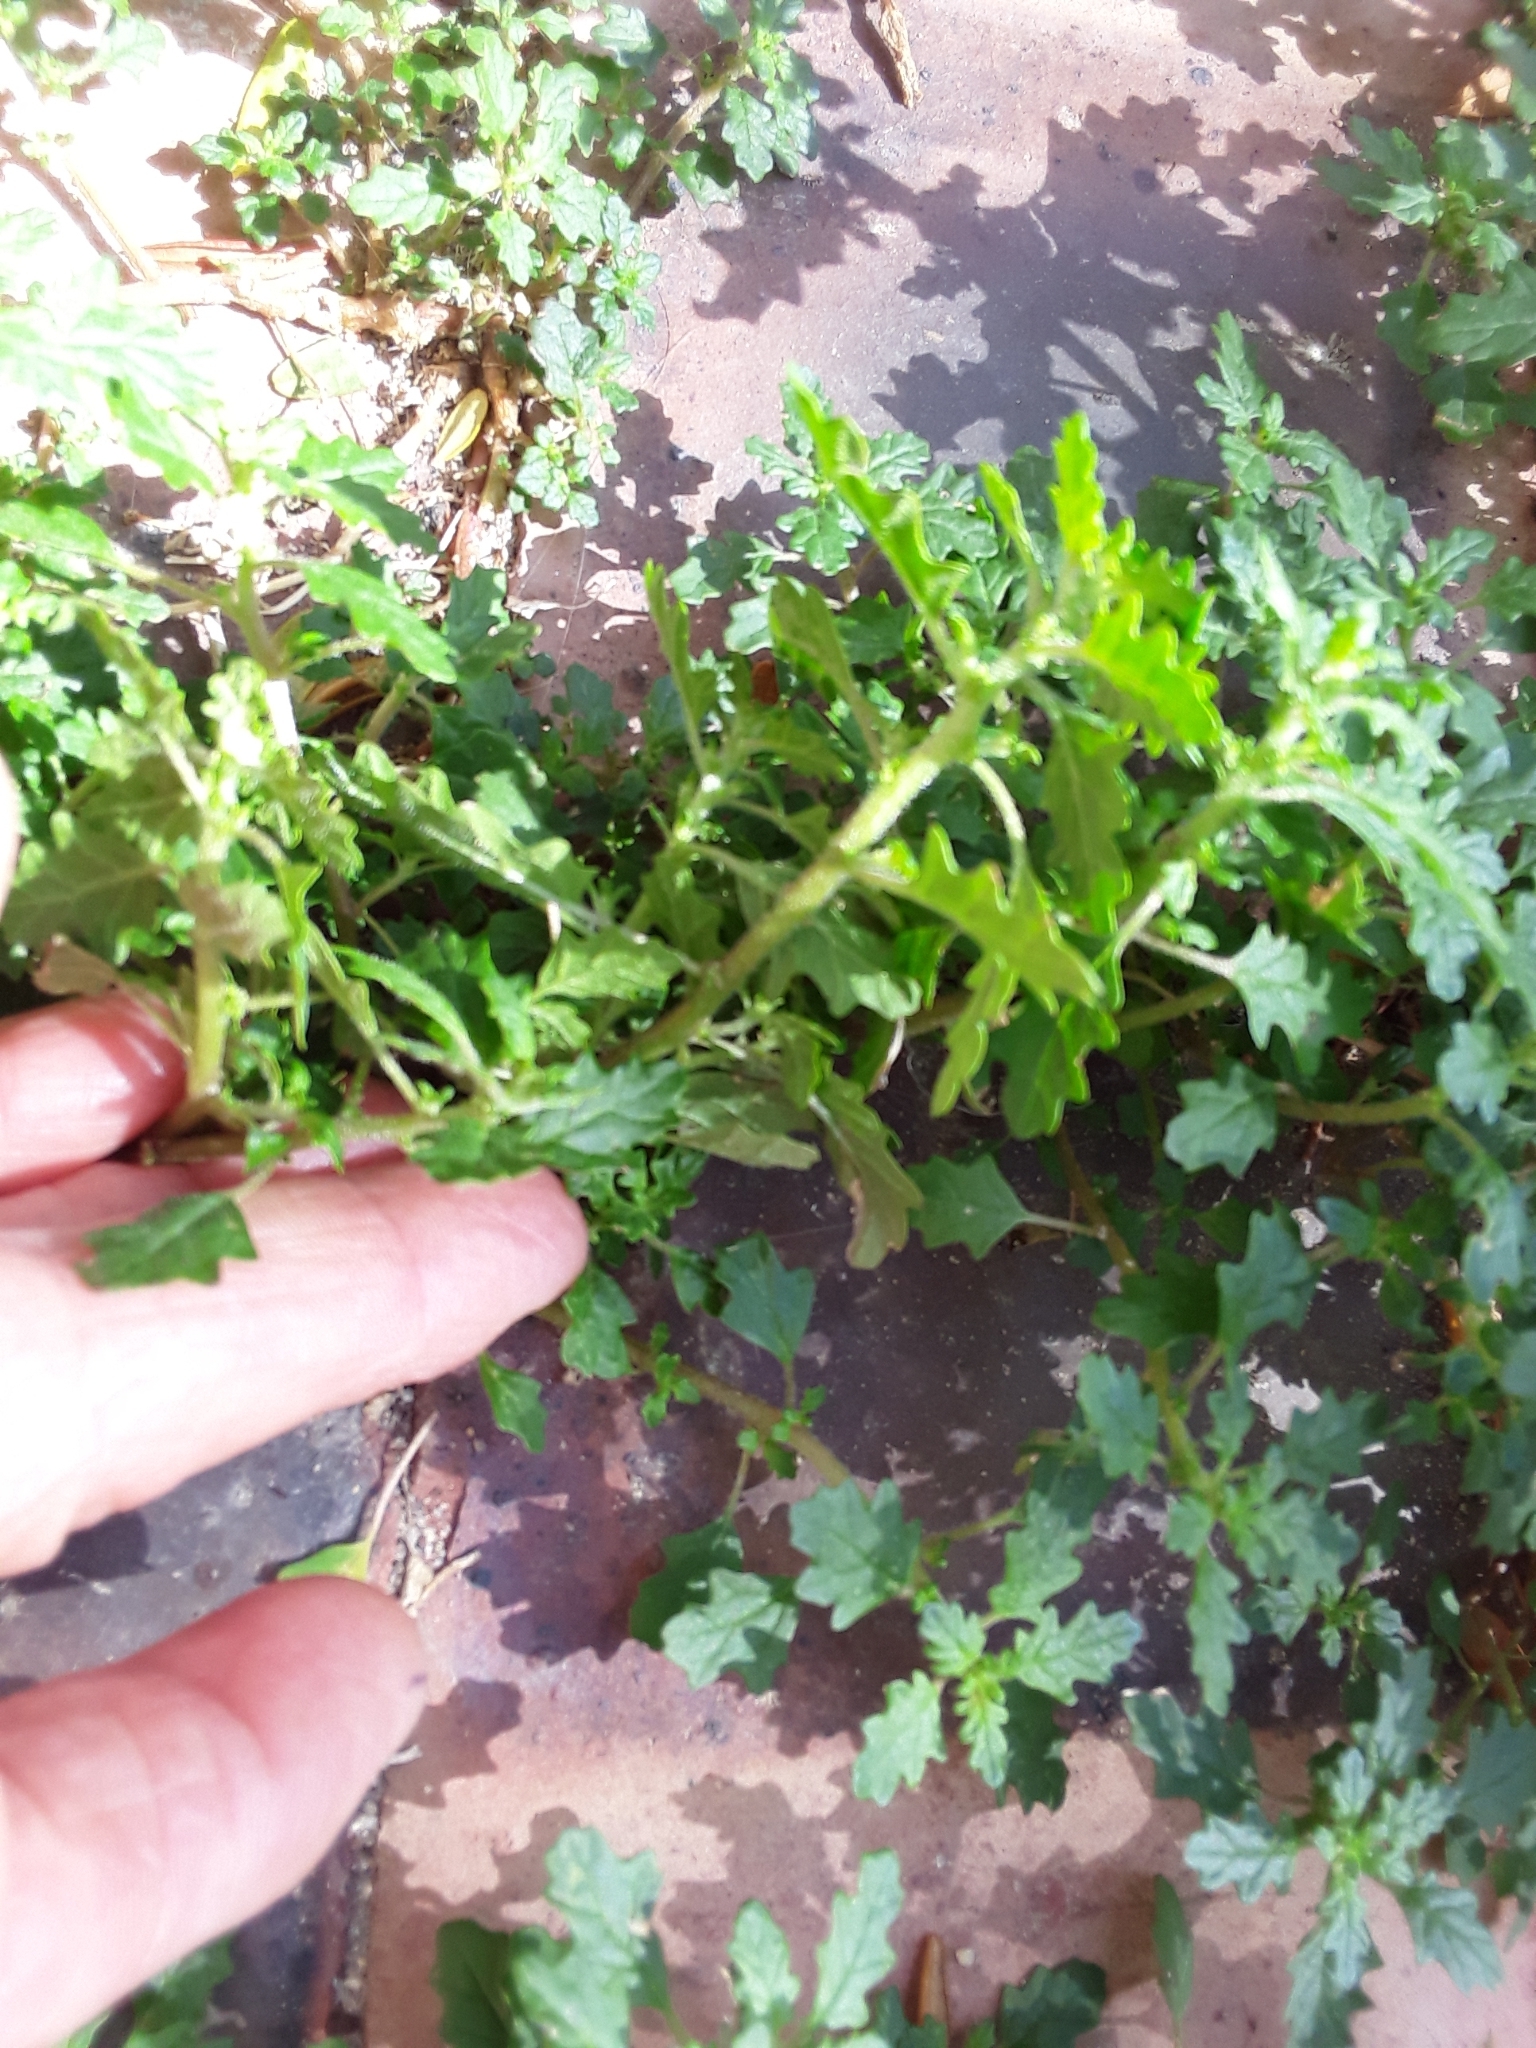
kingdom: Plantae
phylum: Tracheophyta
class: Magnoliopsida
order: Caryophyllales
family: Amaranthaceae
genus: Dysphania
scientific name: Dysphania carinata
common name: Keeled wormseed
